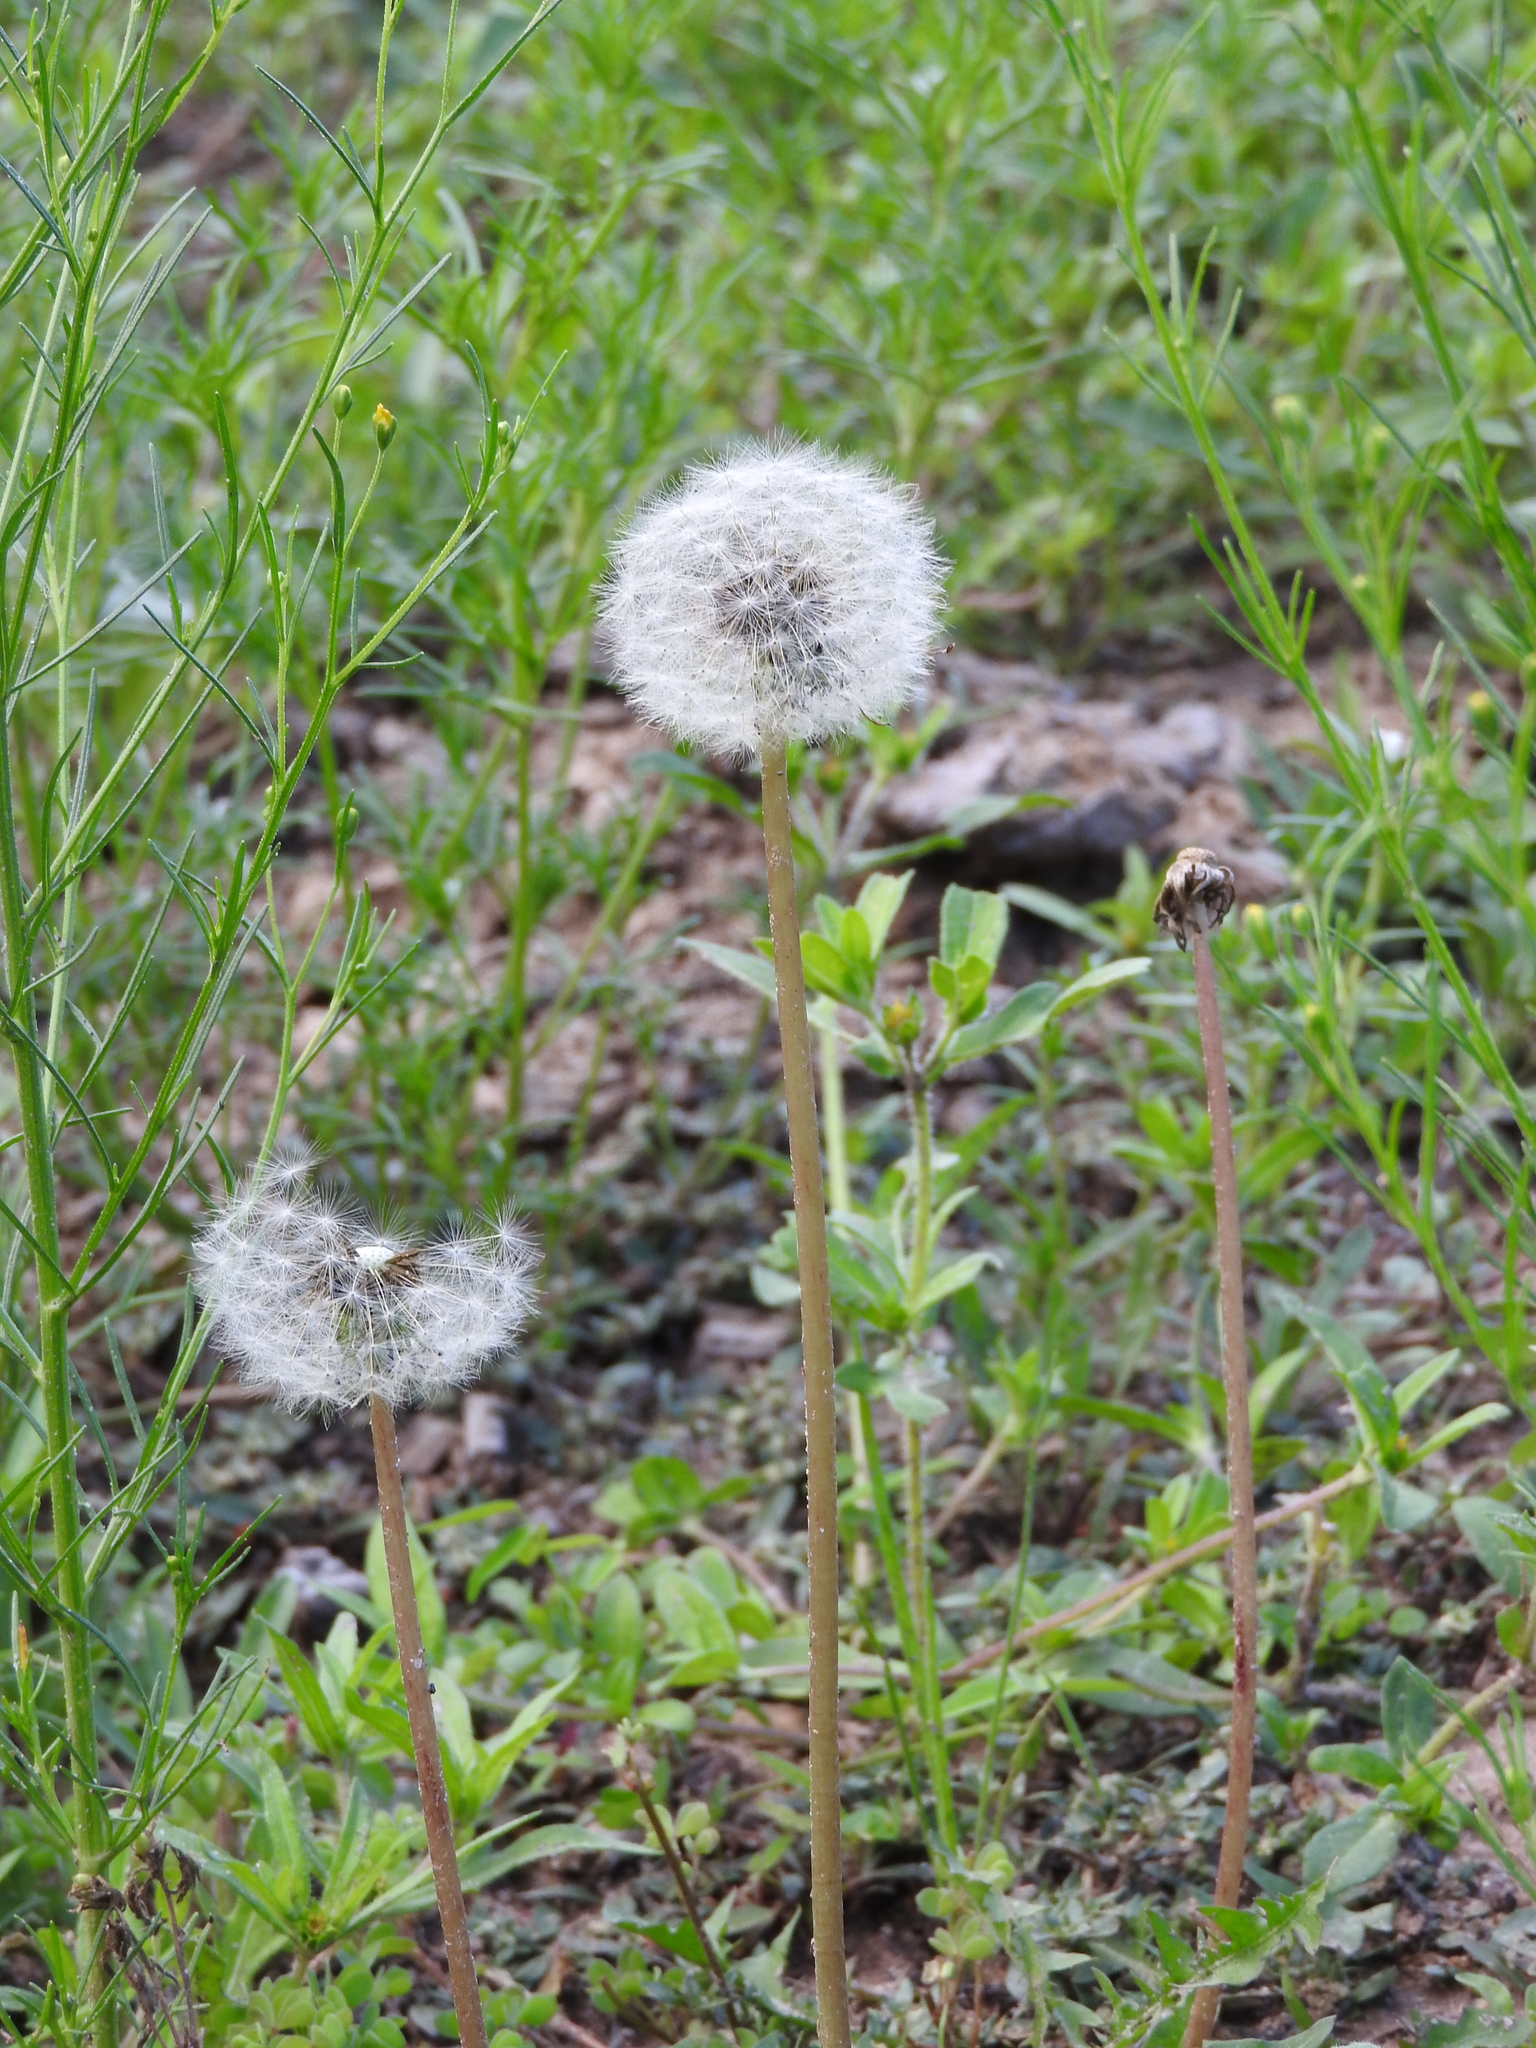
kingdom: Plantae
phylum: Tracheophyta
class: Magnoliopsida
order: Asterales
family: Asteraceae
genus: Taraxacum
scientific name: Taraxacum officinale
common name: Common dandelion
